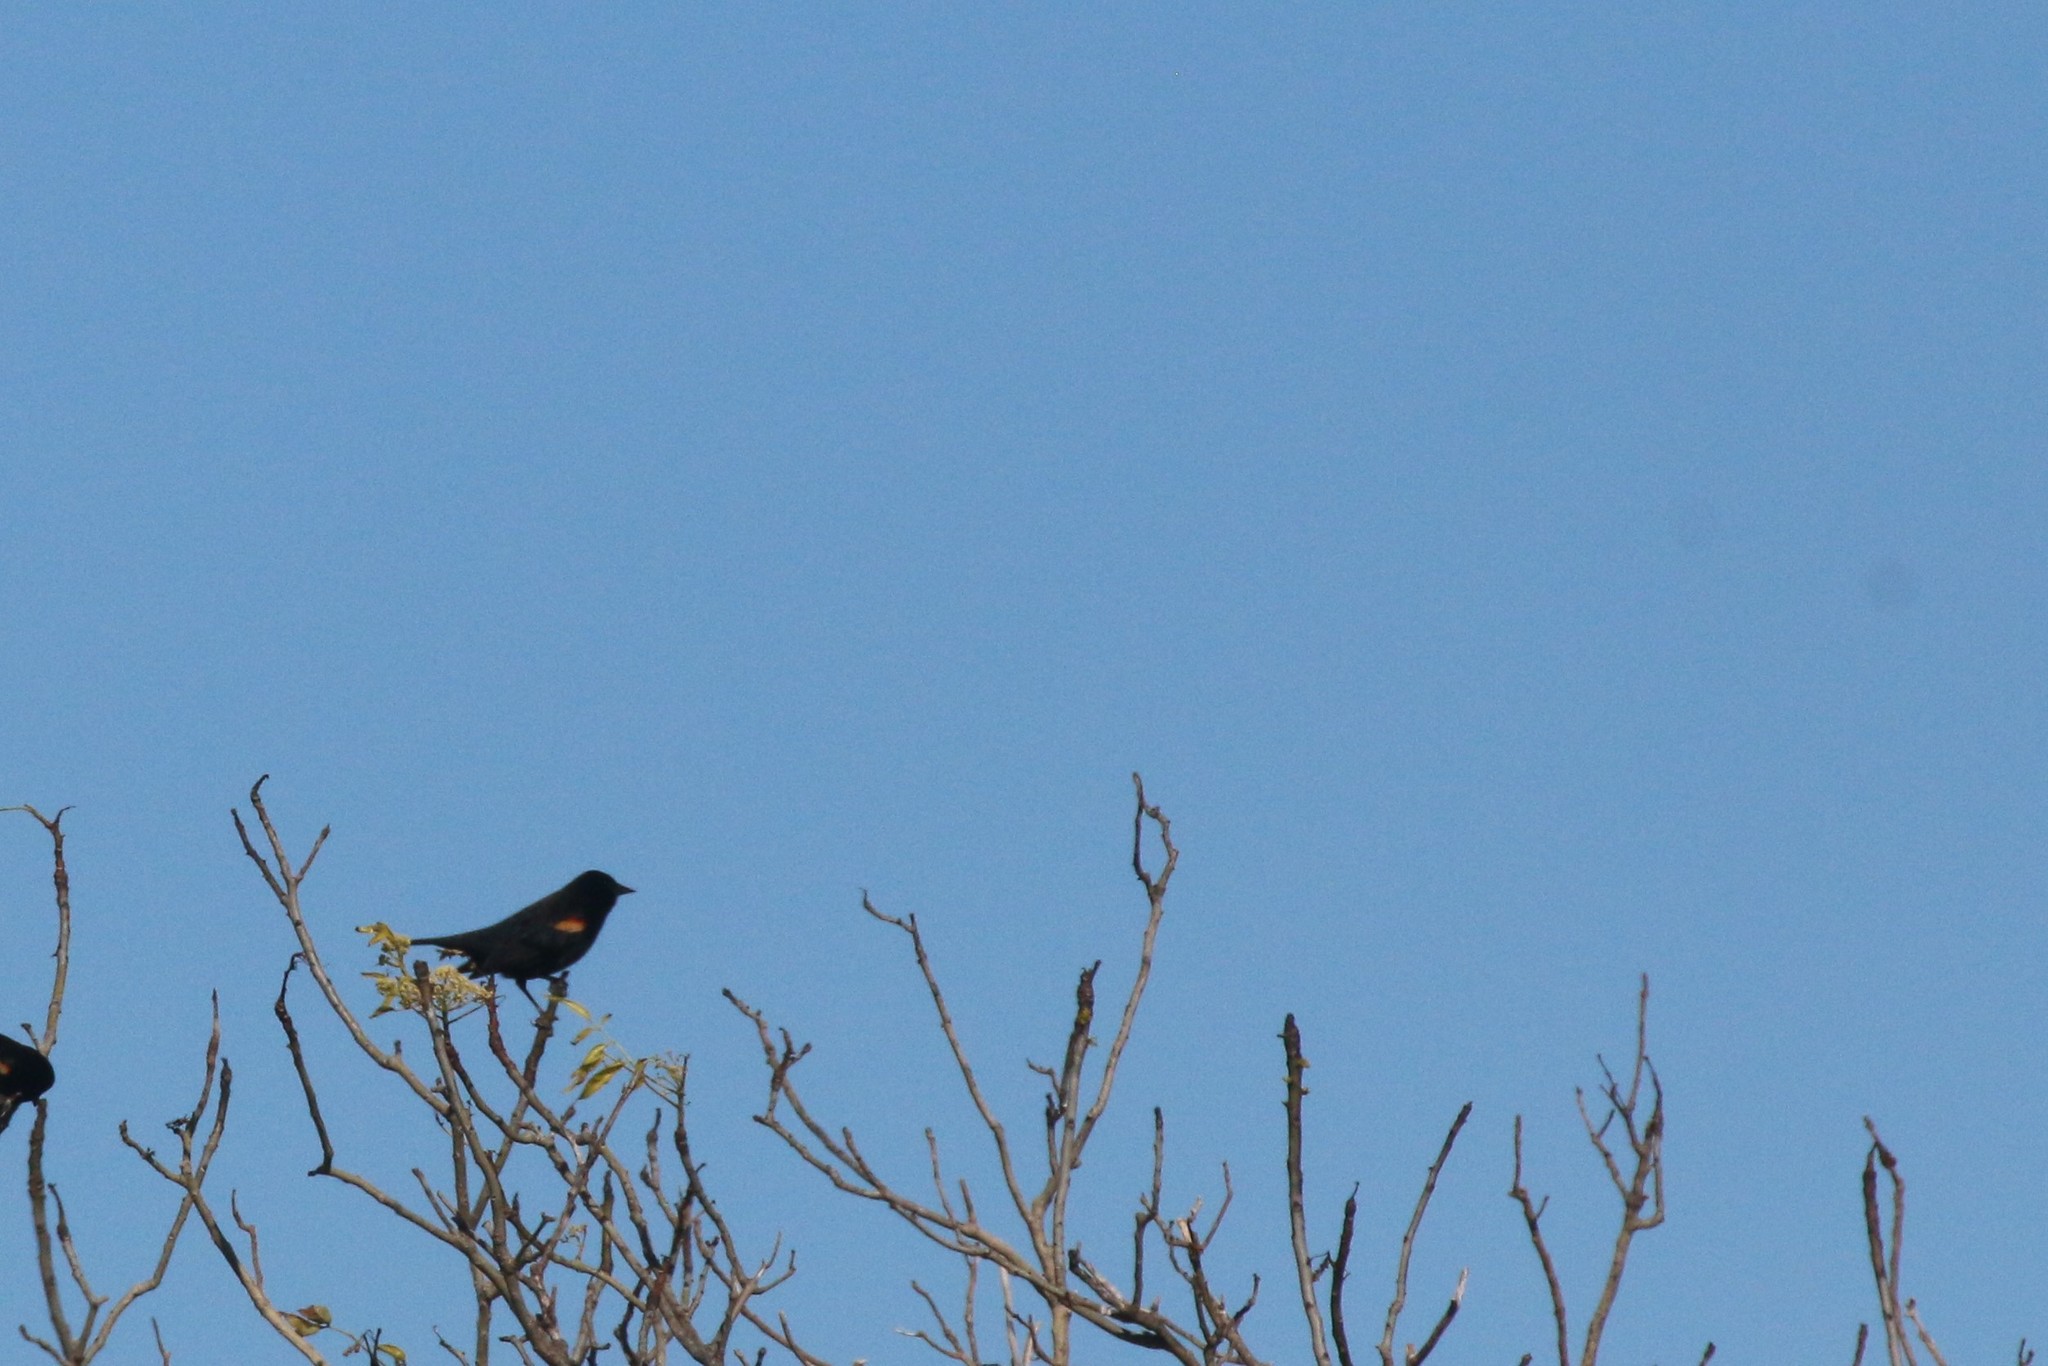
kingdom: Animalia
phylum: Chordata
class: Aves
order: Passeriformes
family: Icteridae
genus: Agelaius
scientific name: Agelaius phoeniceus
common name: Red-winged blackbird
